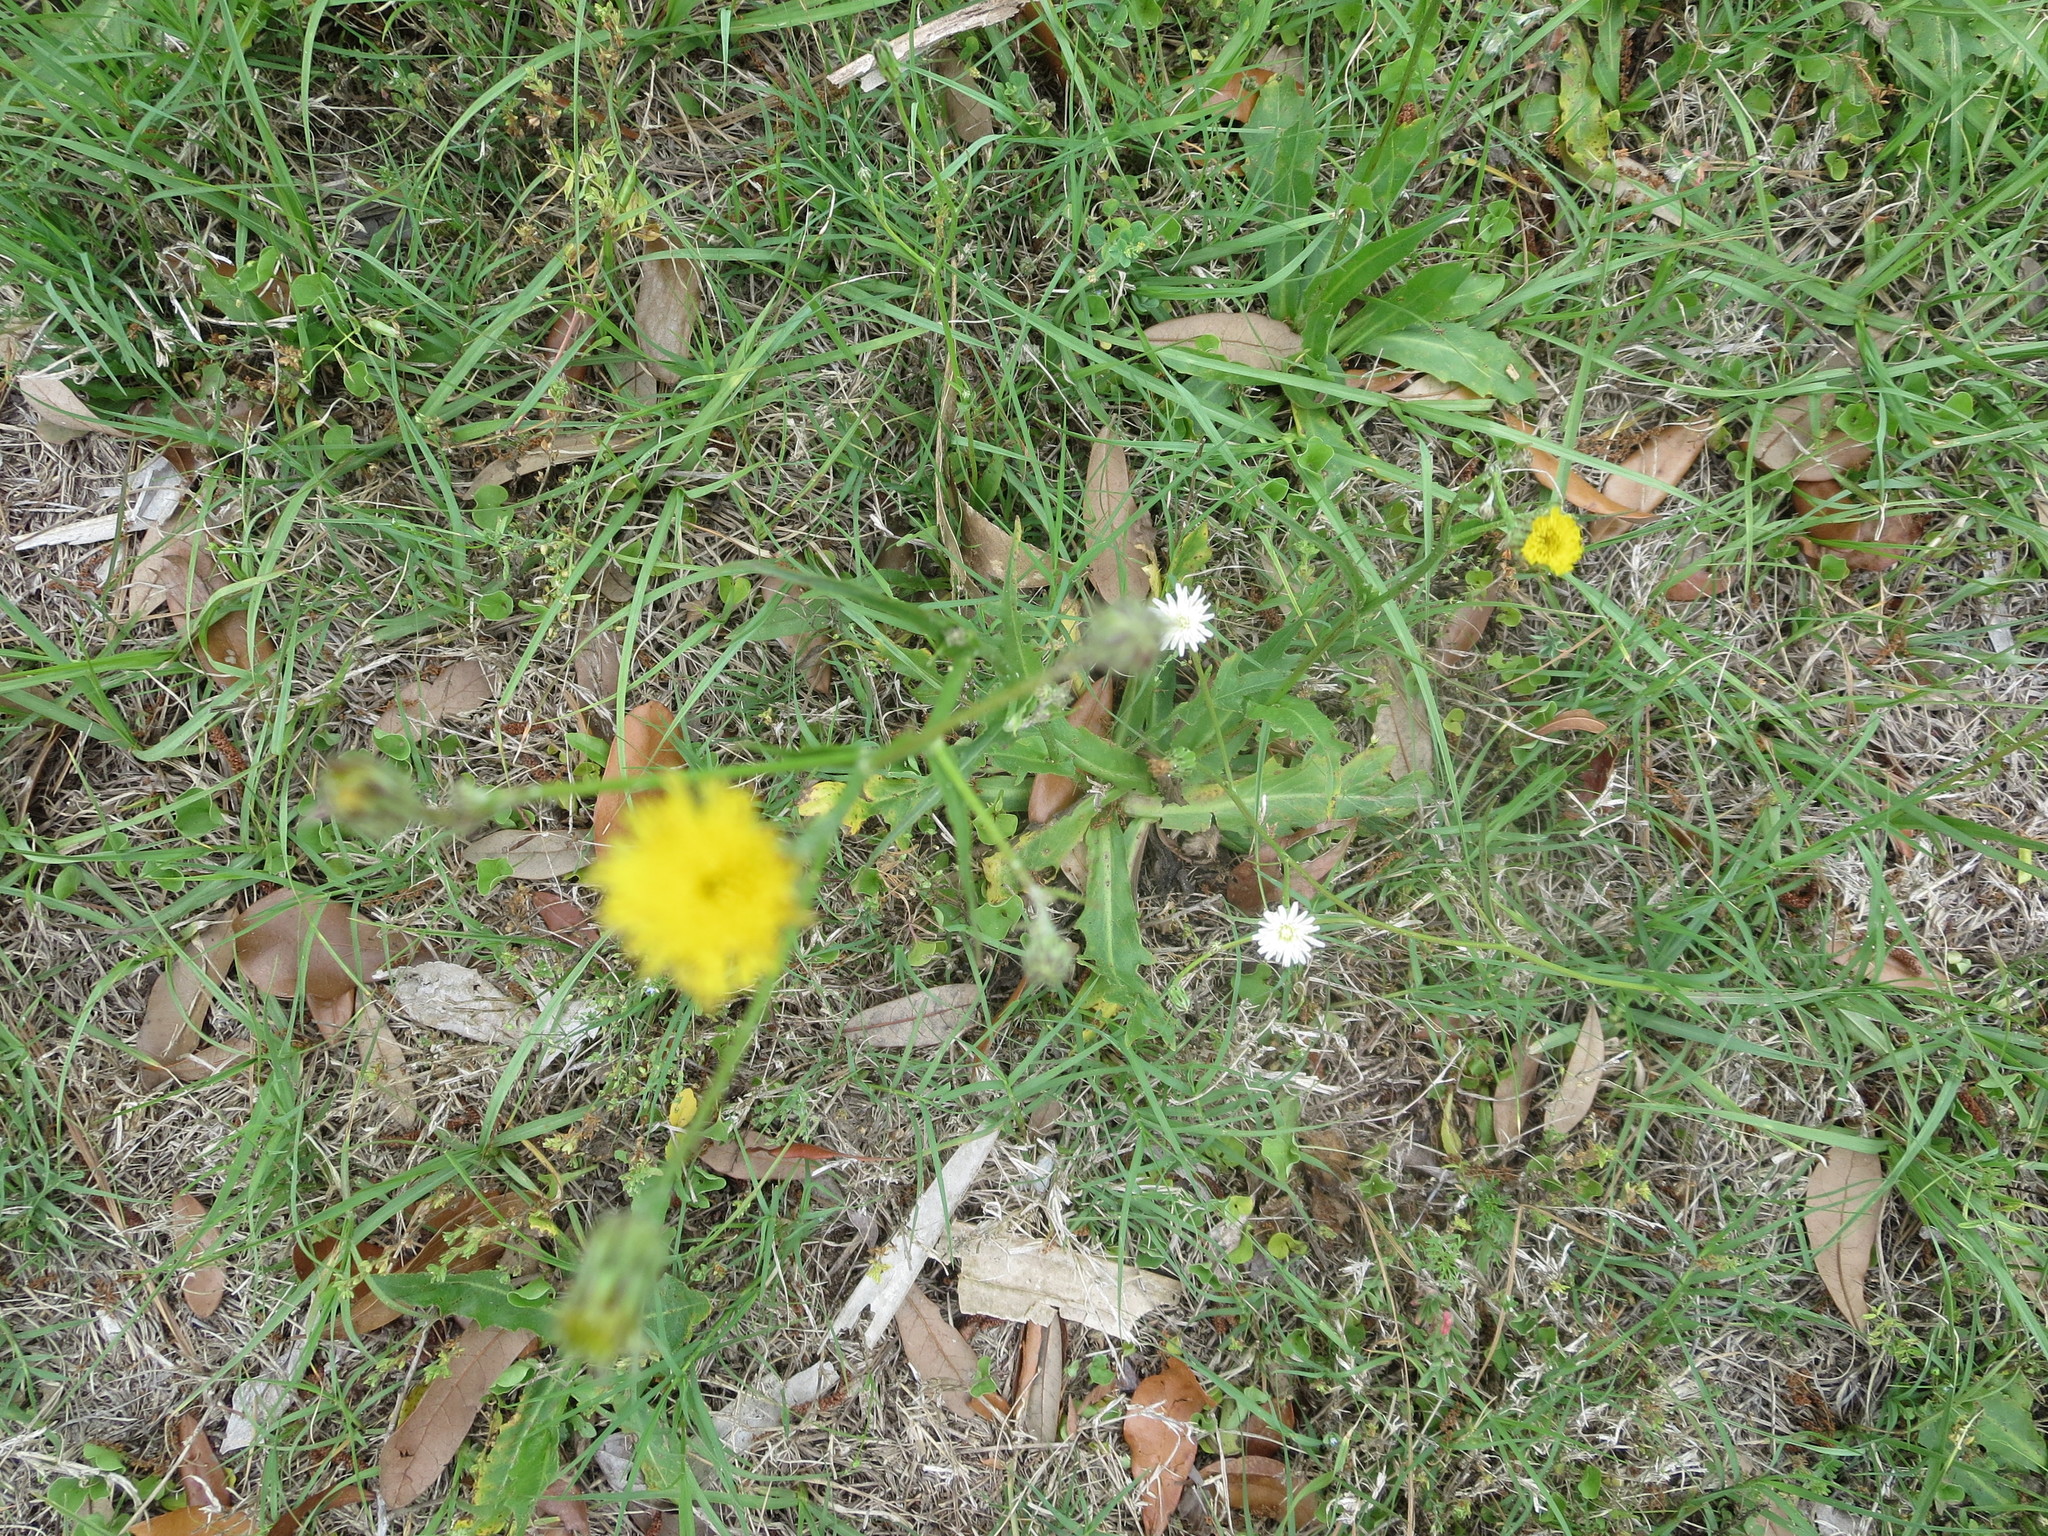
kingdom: Plantae
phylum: Tracheophyta
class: Magnoliopsida
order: Asterales
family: Asteraceae
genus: Hypochaeris
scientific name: Hypochaeris chillensis
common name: Brazilian cat's ear
